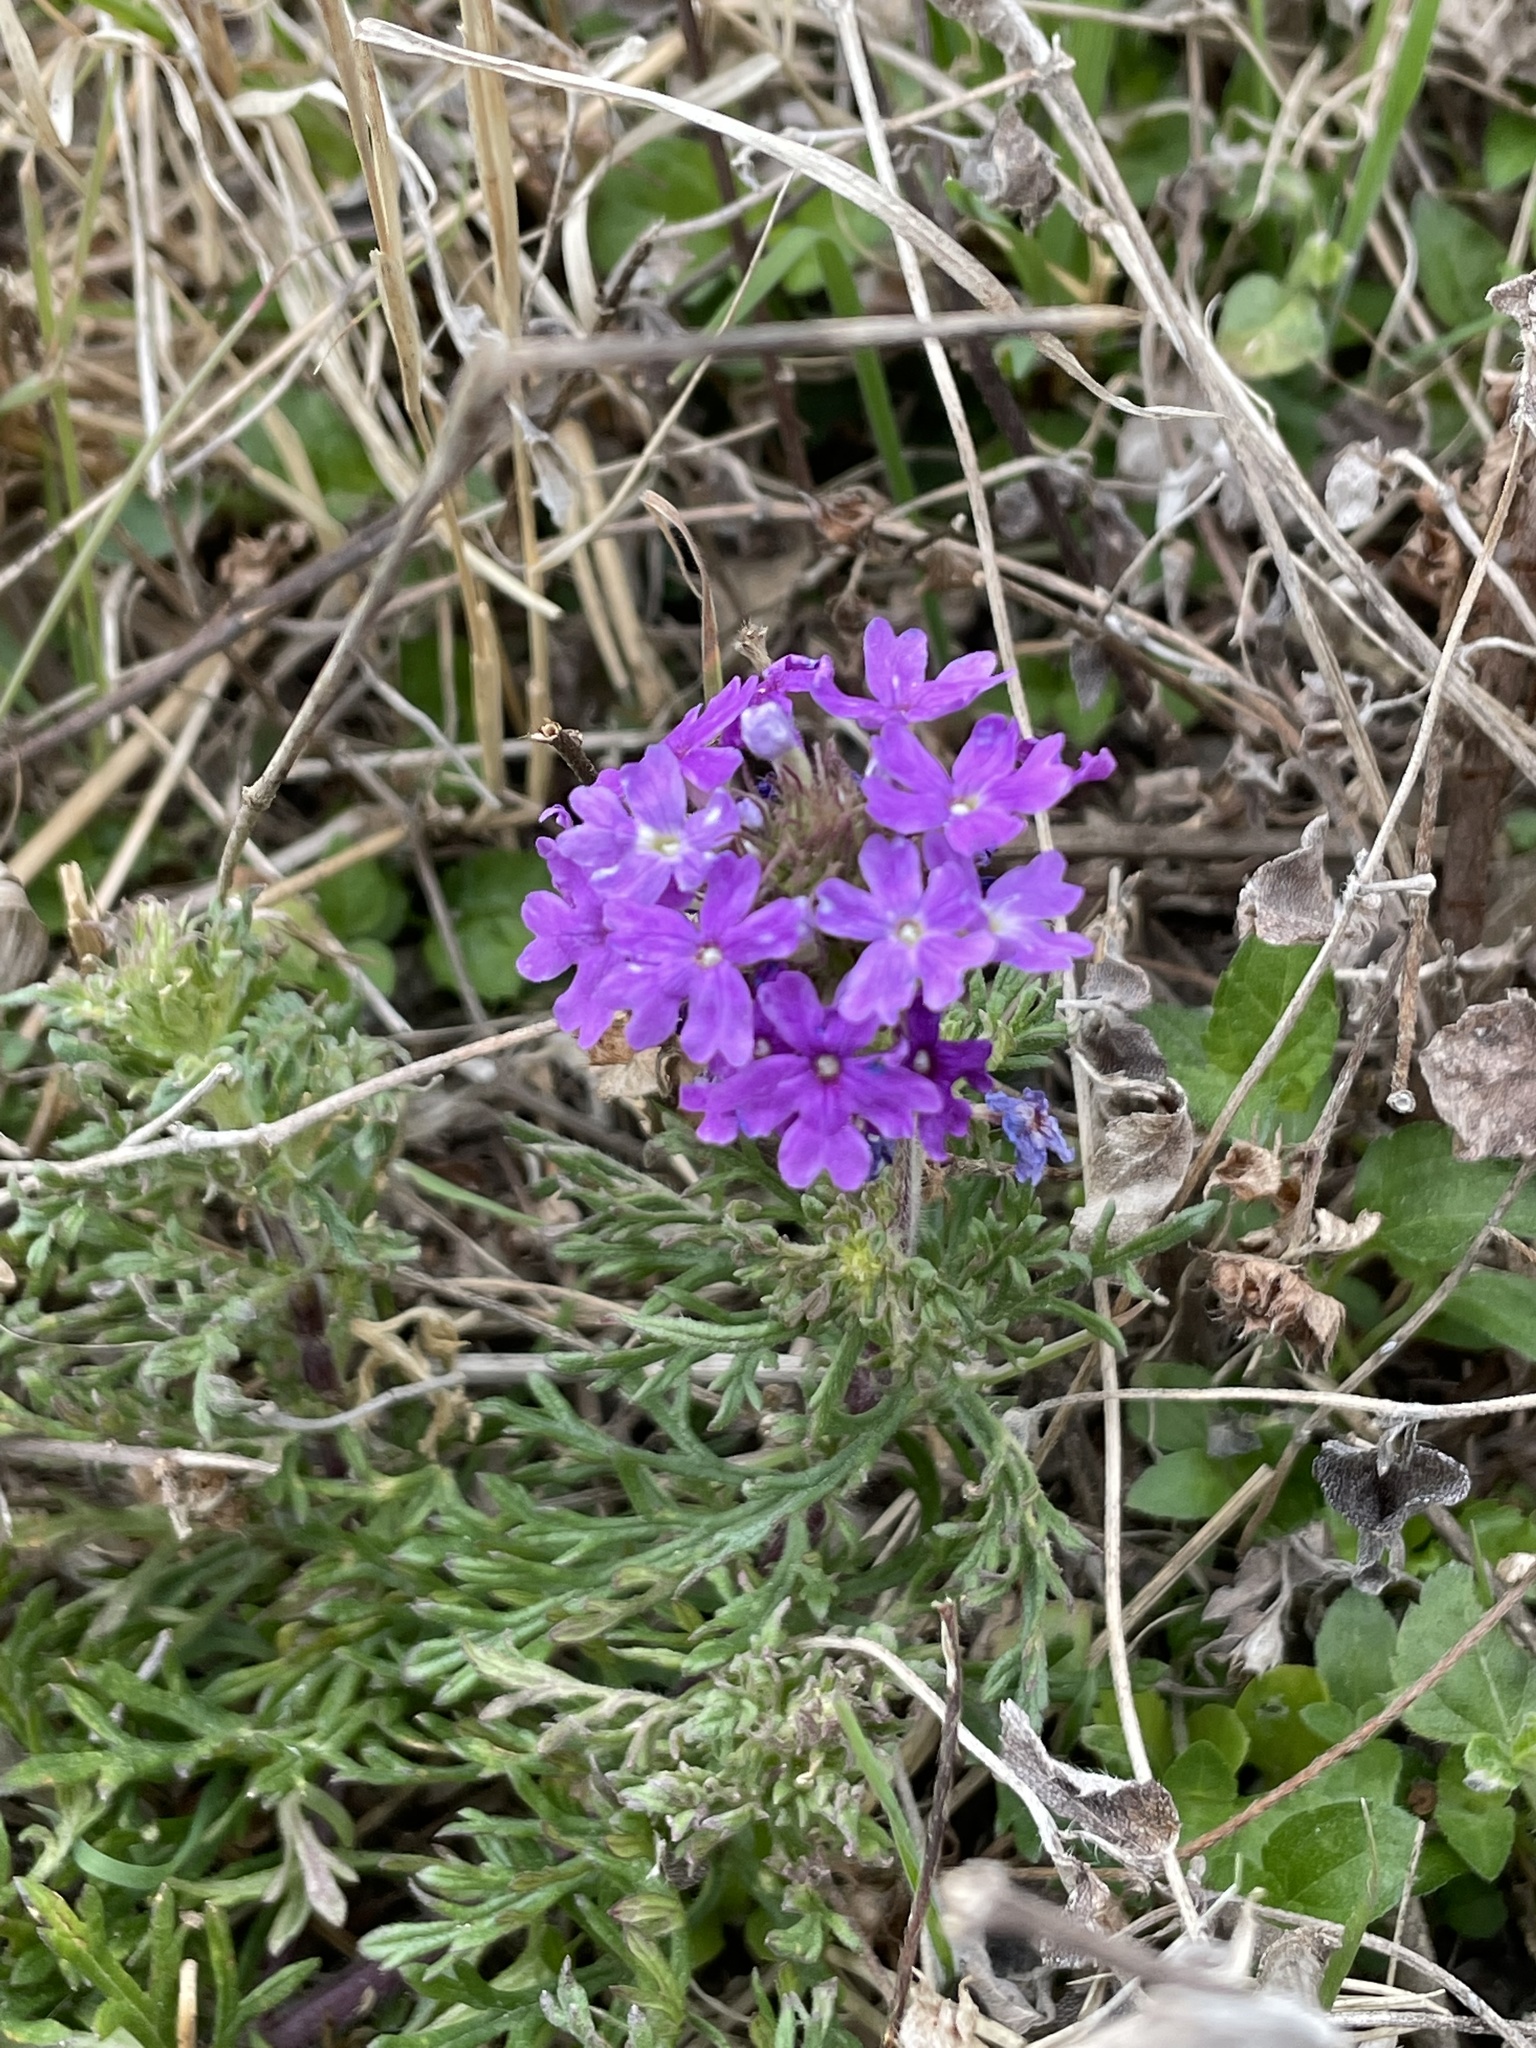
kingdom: Plantae
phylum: Tracheophyta
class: Magnoliopsida
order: Lamiales
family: Verbenaceae
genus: Verbena
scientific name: Verbena bipinnatifida
